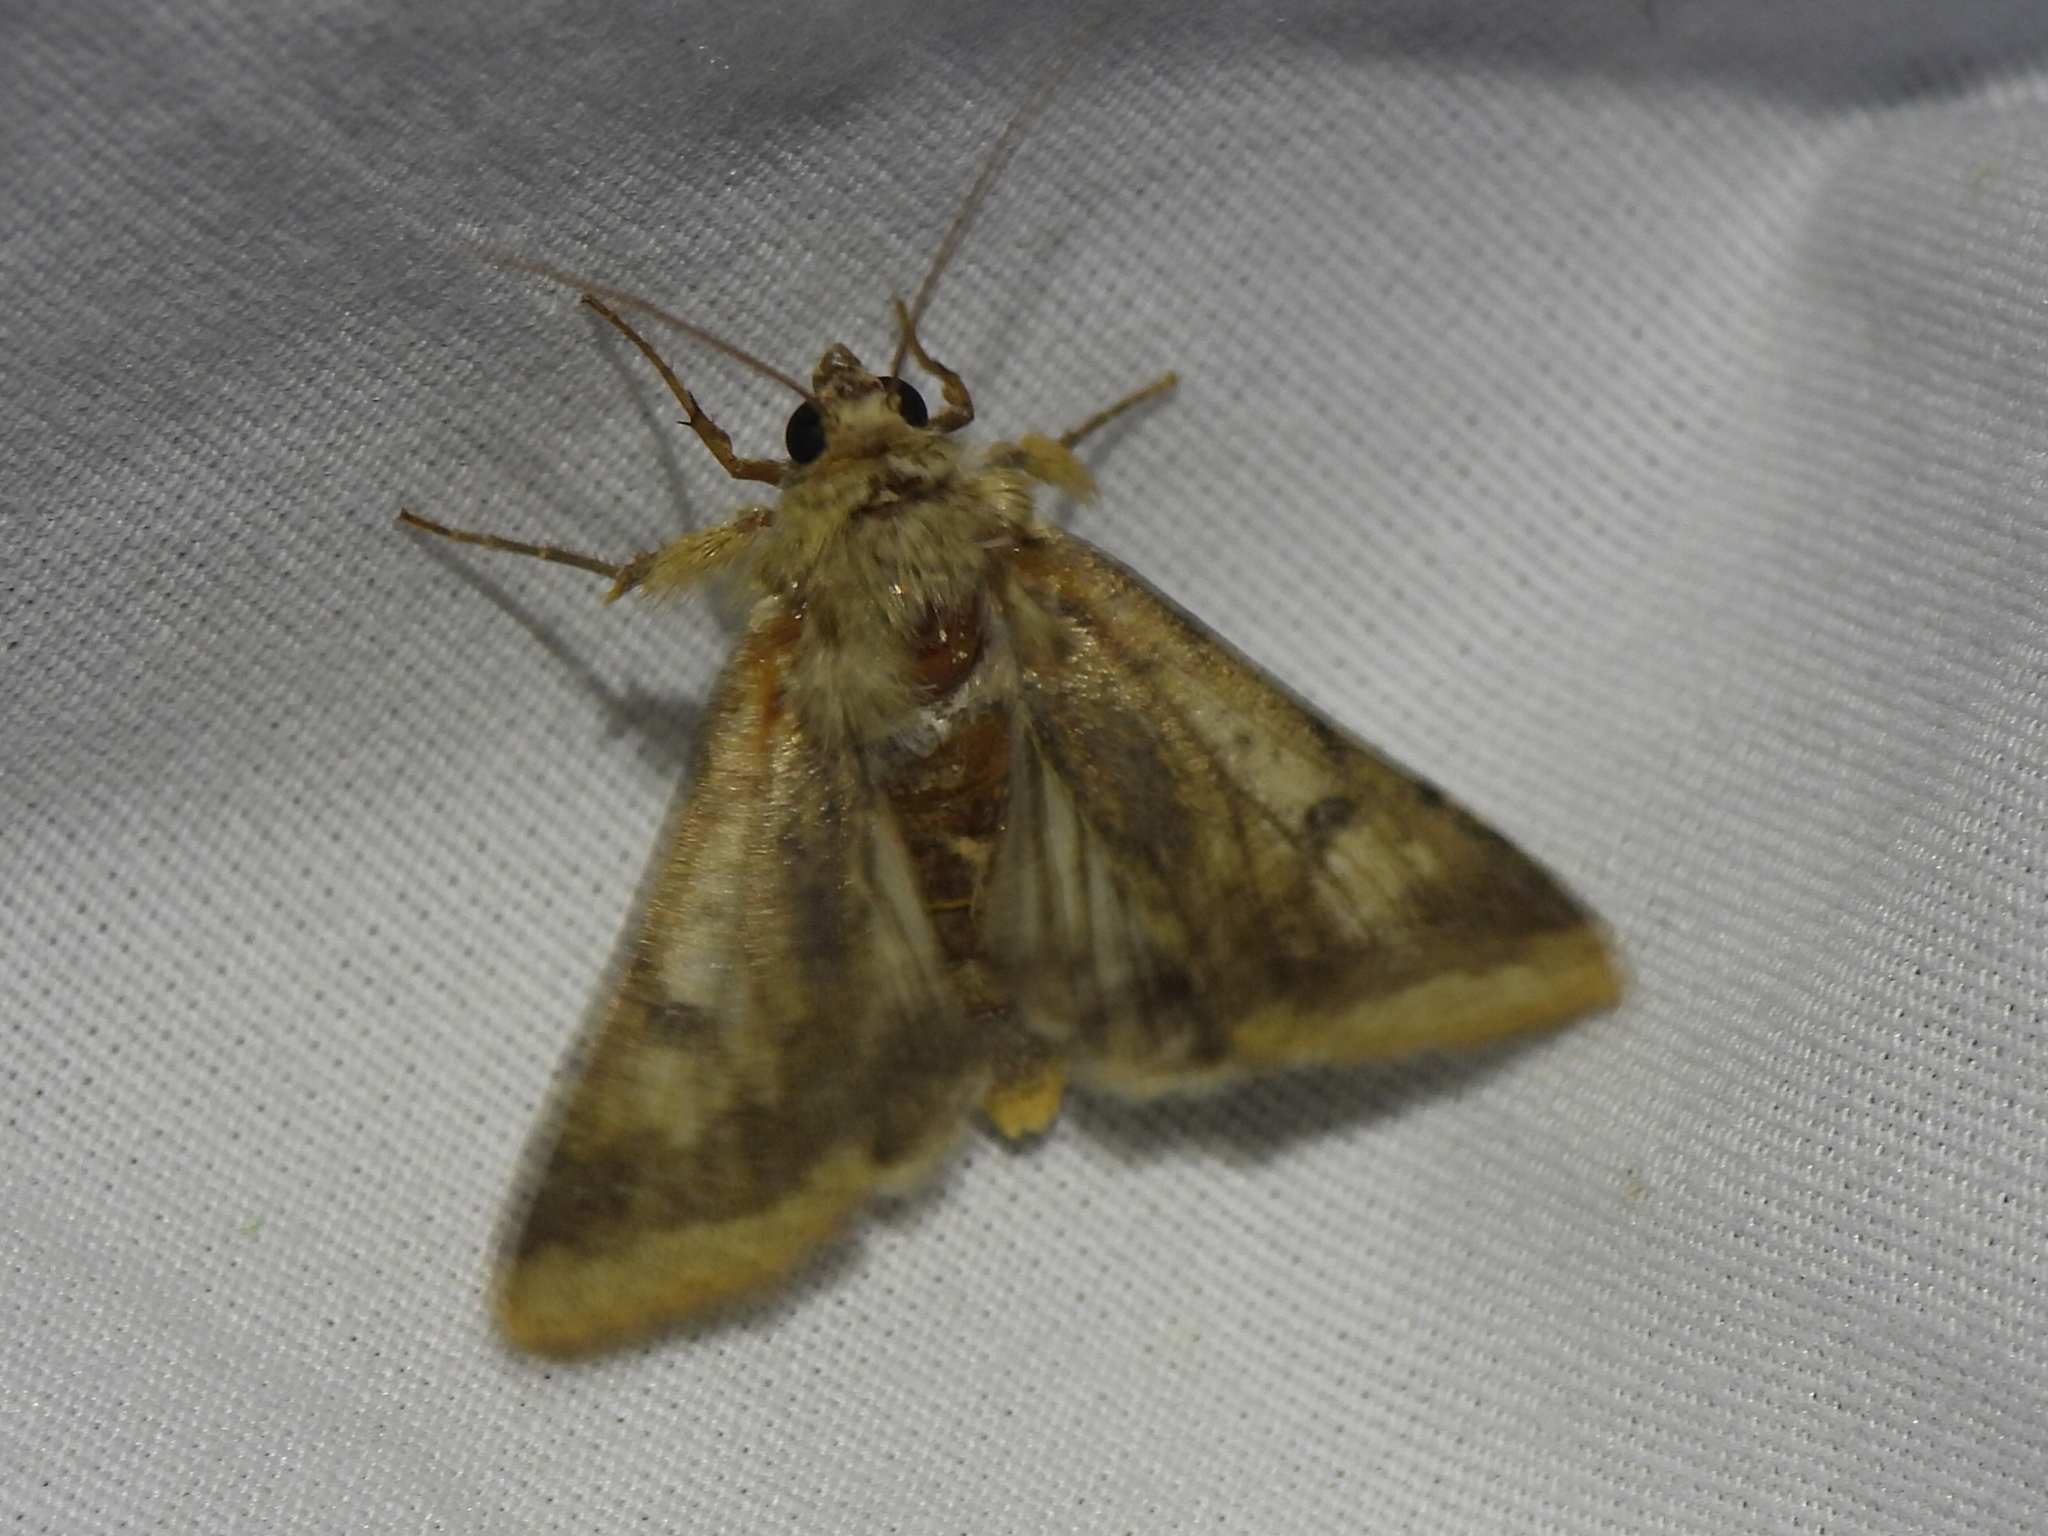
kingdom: Animalia
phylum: Arthropoda
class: Insecta
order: Lepidoptera
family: Noctuidae
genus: Helicoverpa
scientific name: Helicoverpa zea
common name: Bollworm
